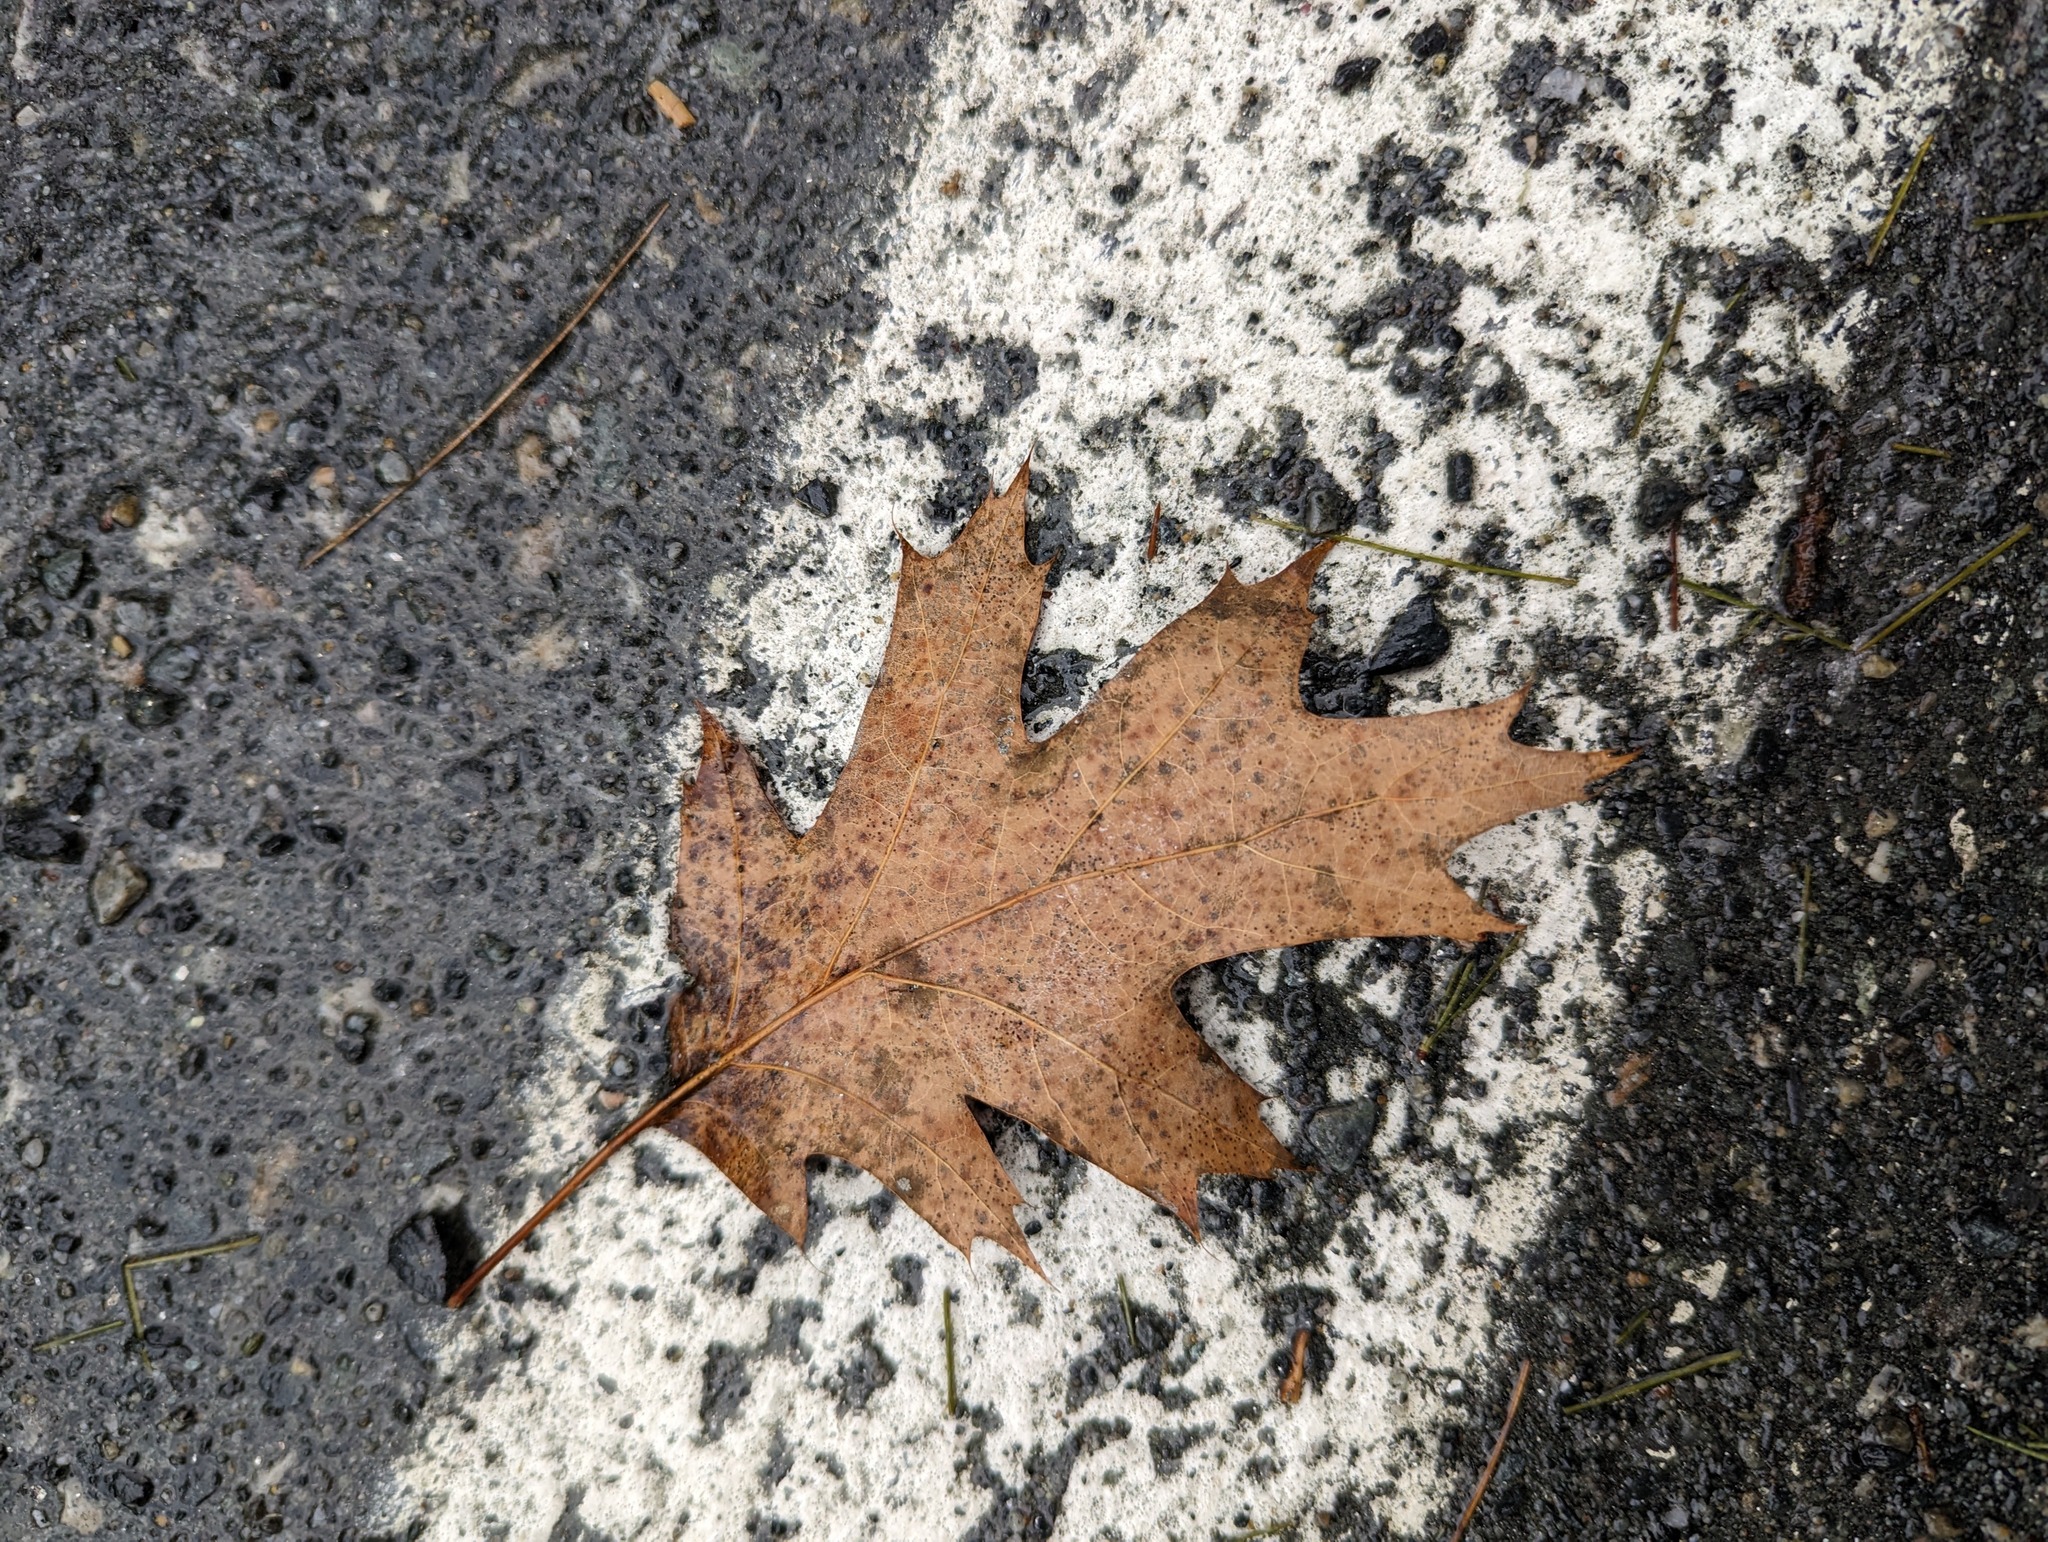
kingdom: Plantae
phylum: Tracheophyta
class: Magnoliopsida
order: Fagales
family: Fagaceae
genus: Quercus
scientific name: Quercus rubra
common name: Red oak
